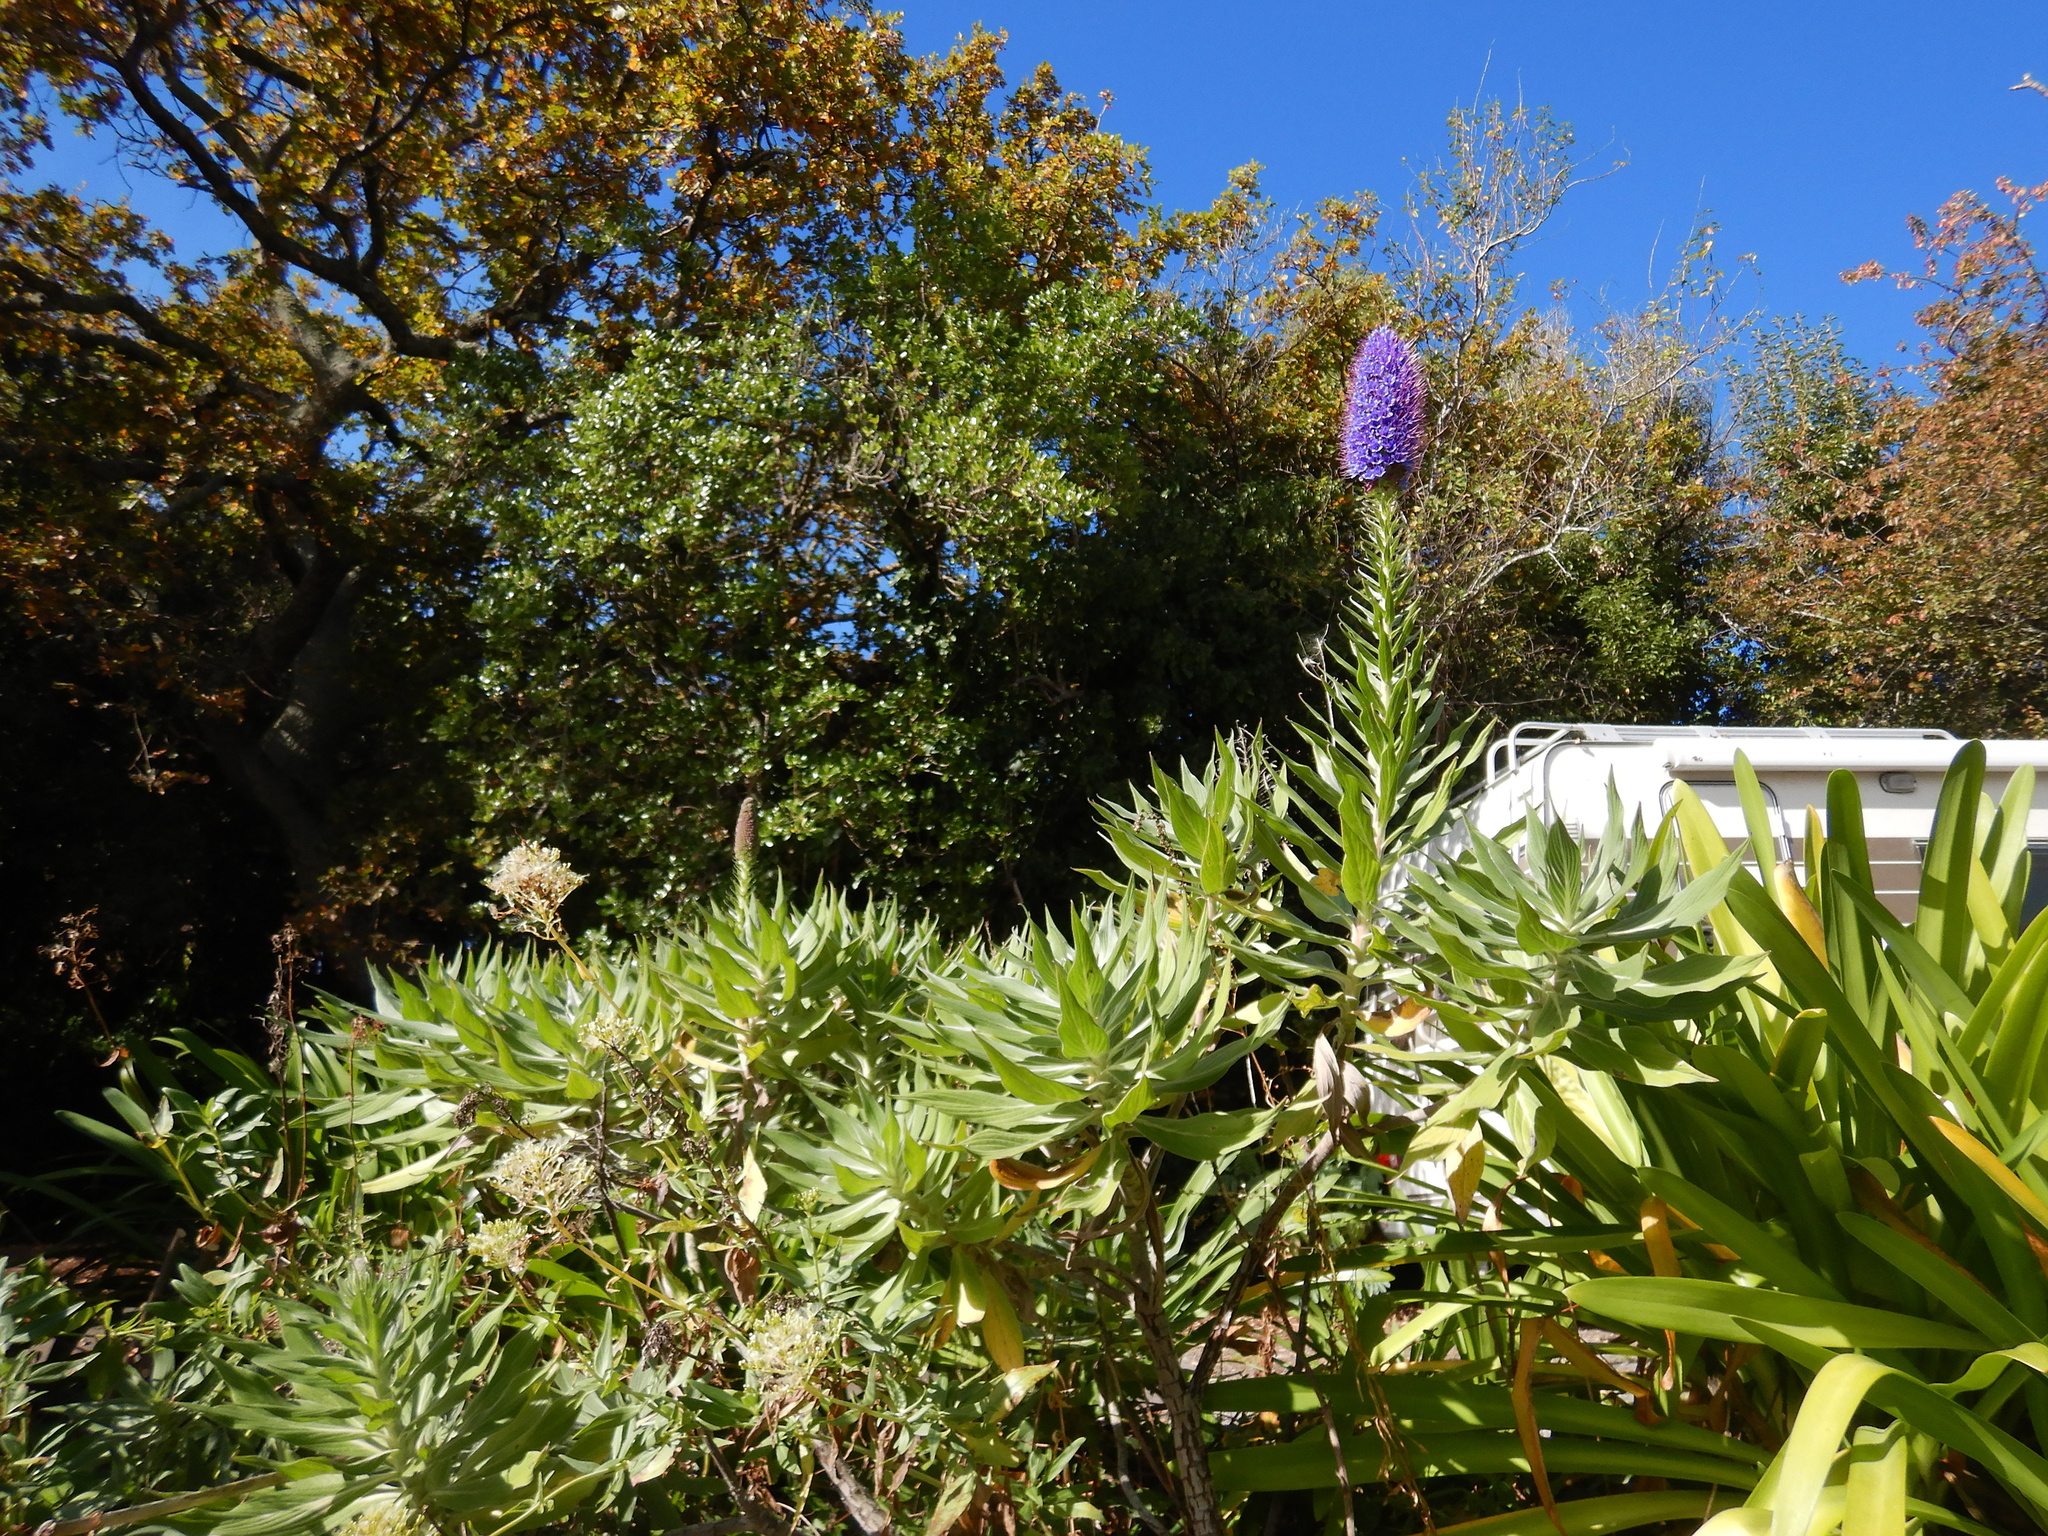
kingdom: Plantae
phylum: Tracheophyta
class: Magnoliopsida
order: Boraginales
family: Boraginaceae
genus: Echium
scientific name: Echium candicans
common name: Pride of madeira
